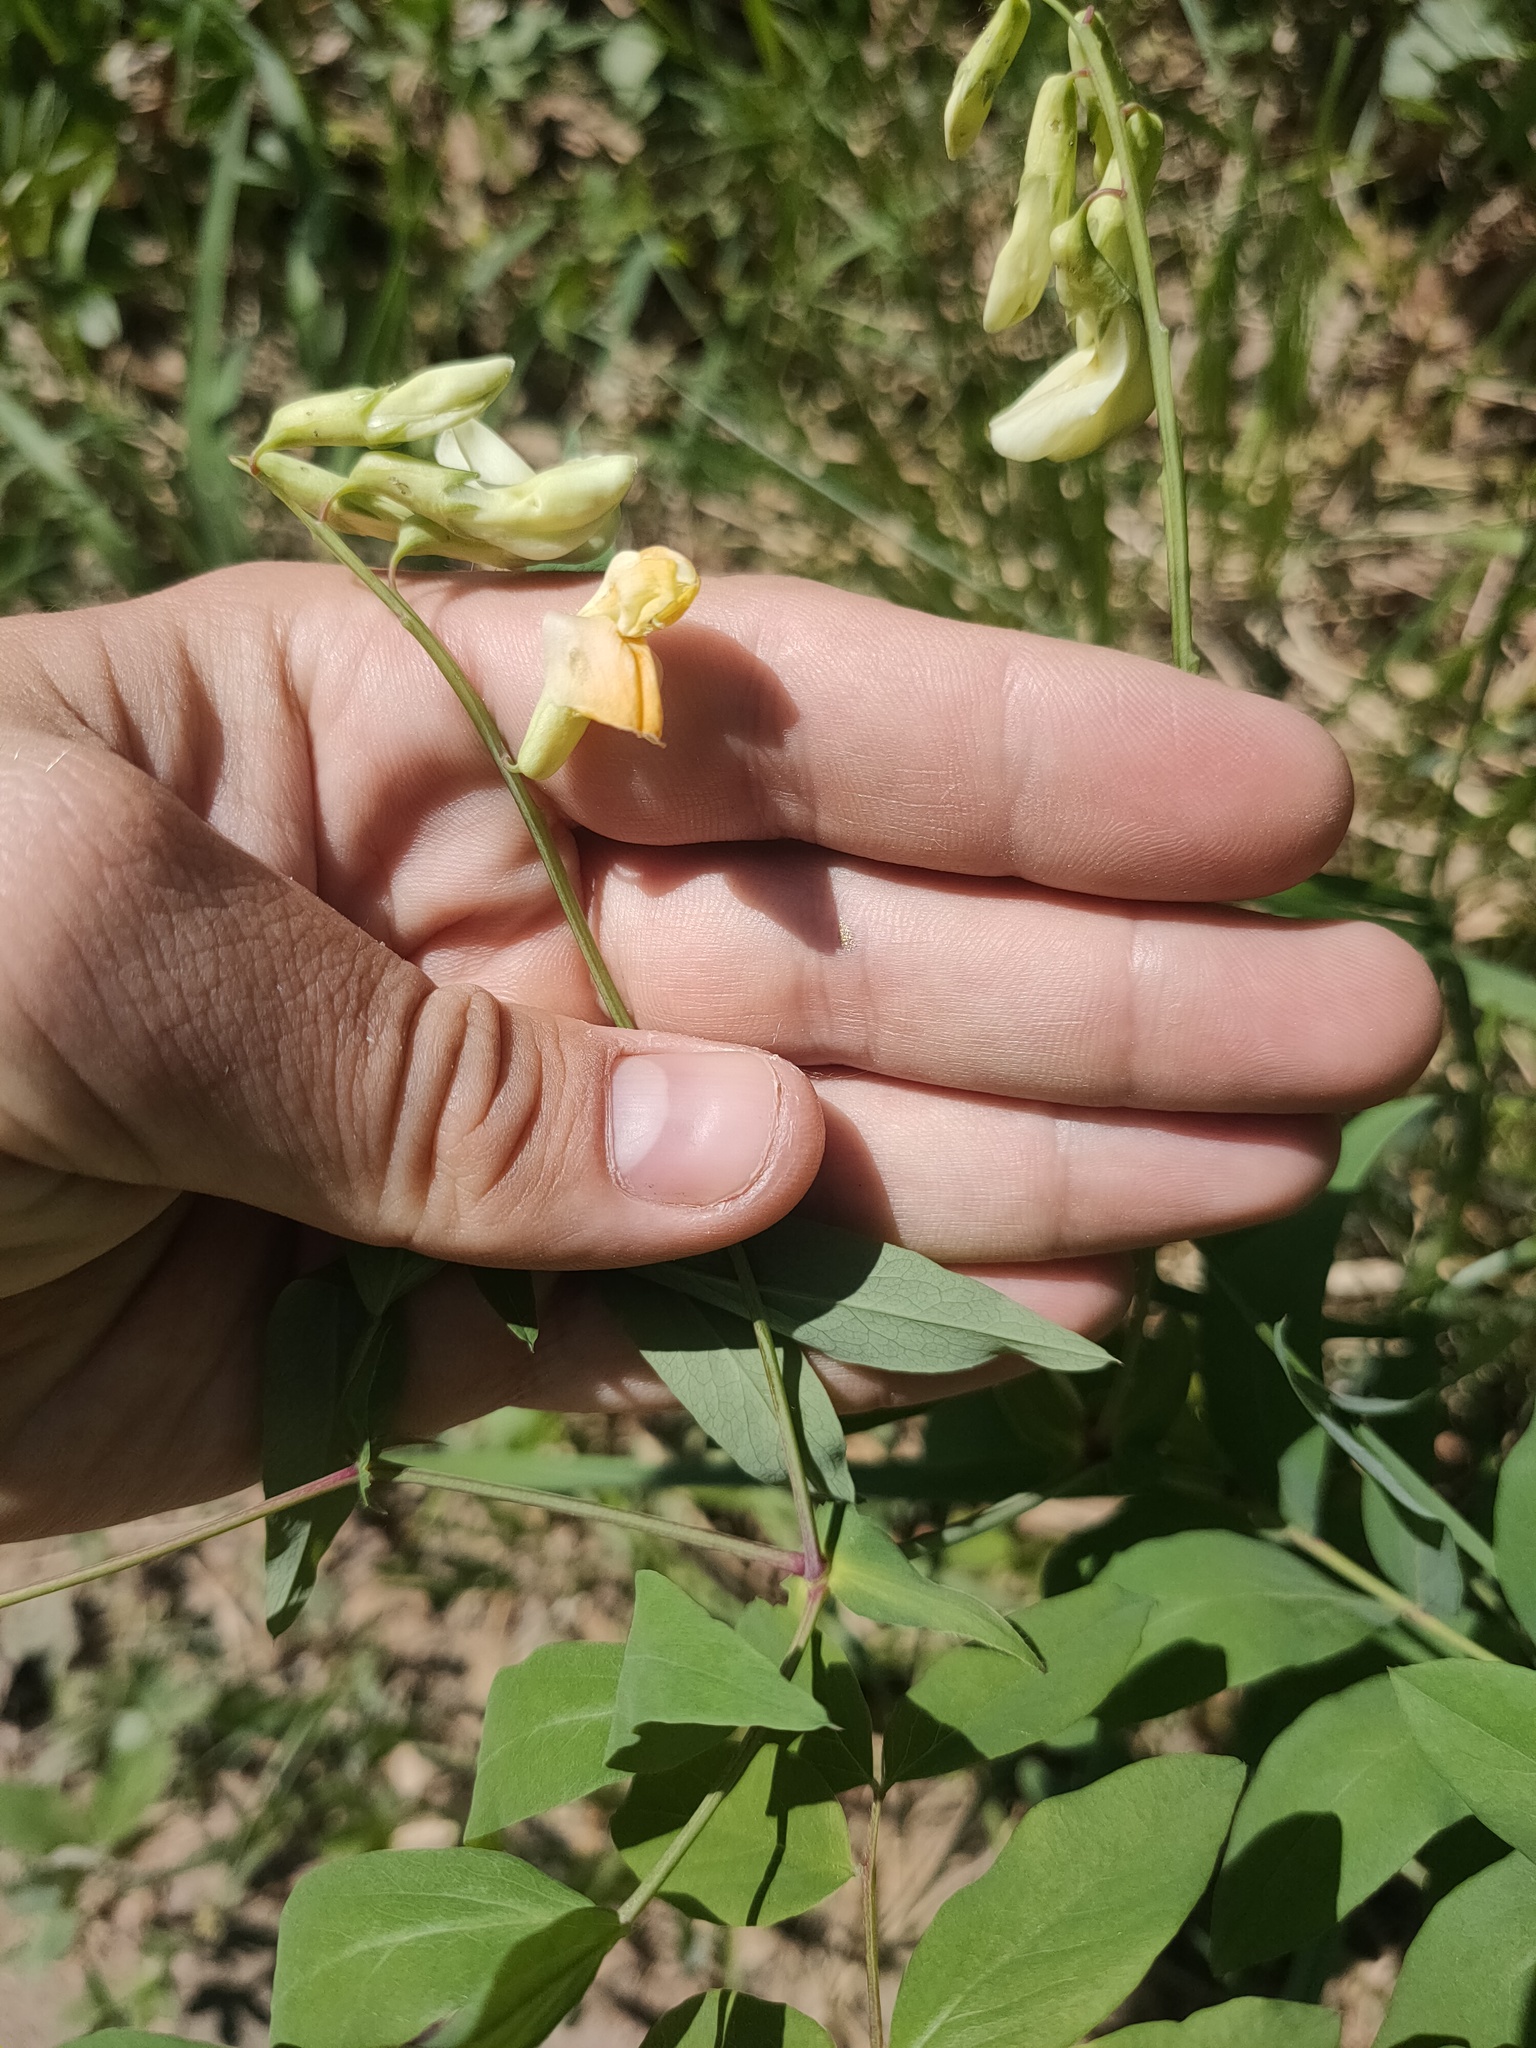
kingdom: Plantae
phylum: Tracheophyta
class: Magnoliopsida
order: Fabales
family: Fabaceae
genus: Lathyrus
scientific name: Lathyrus gmelinii
